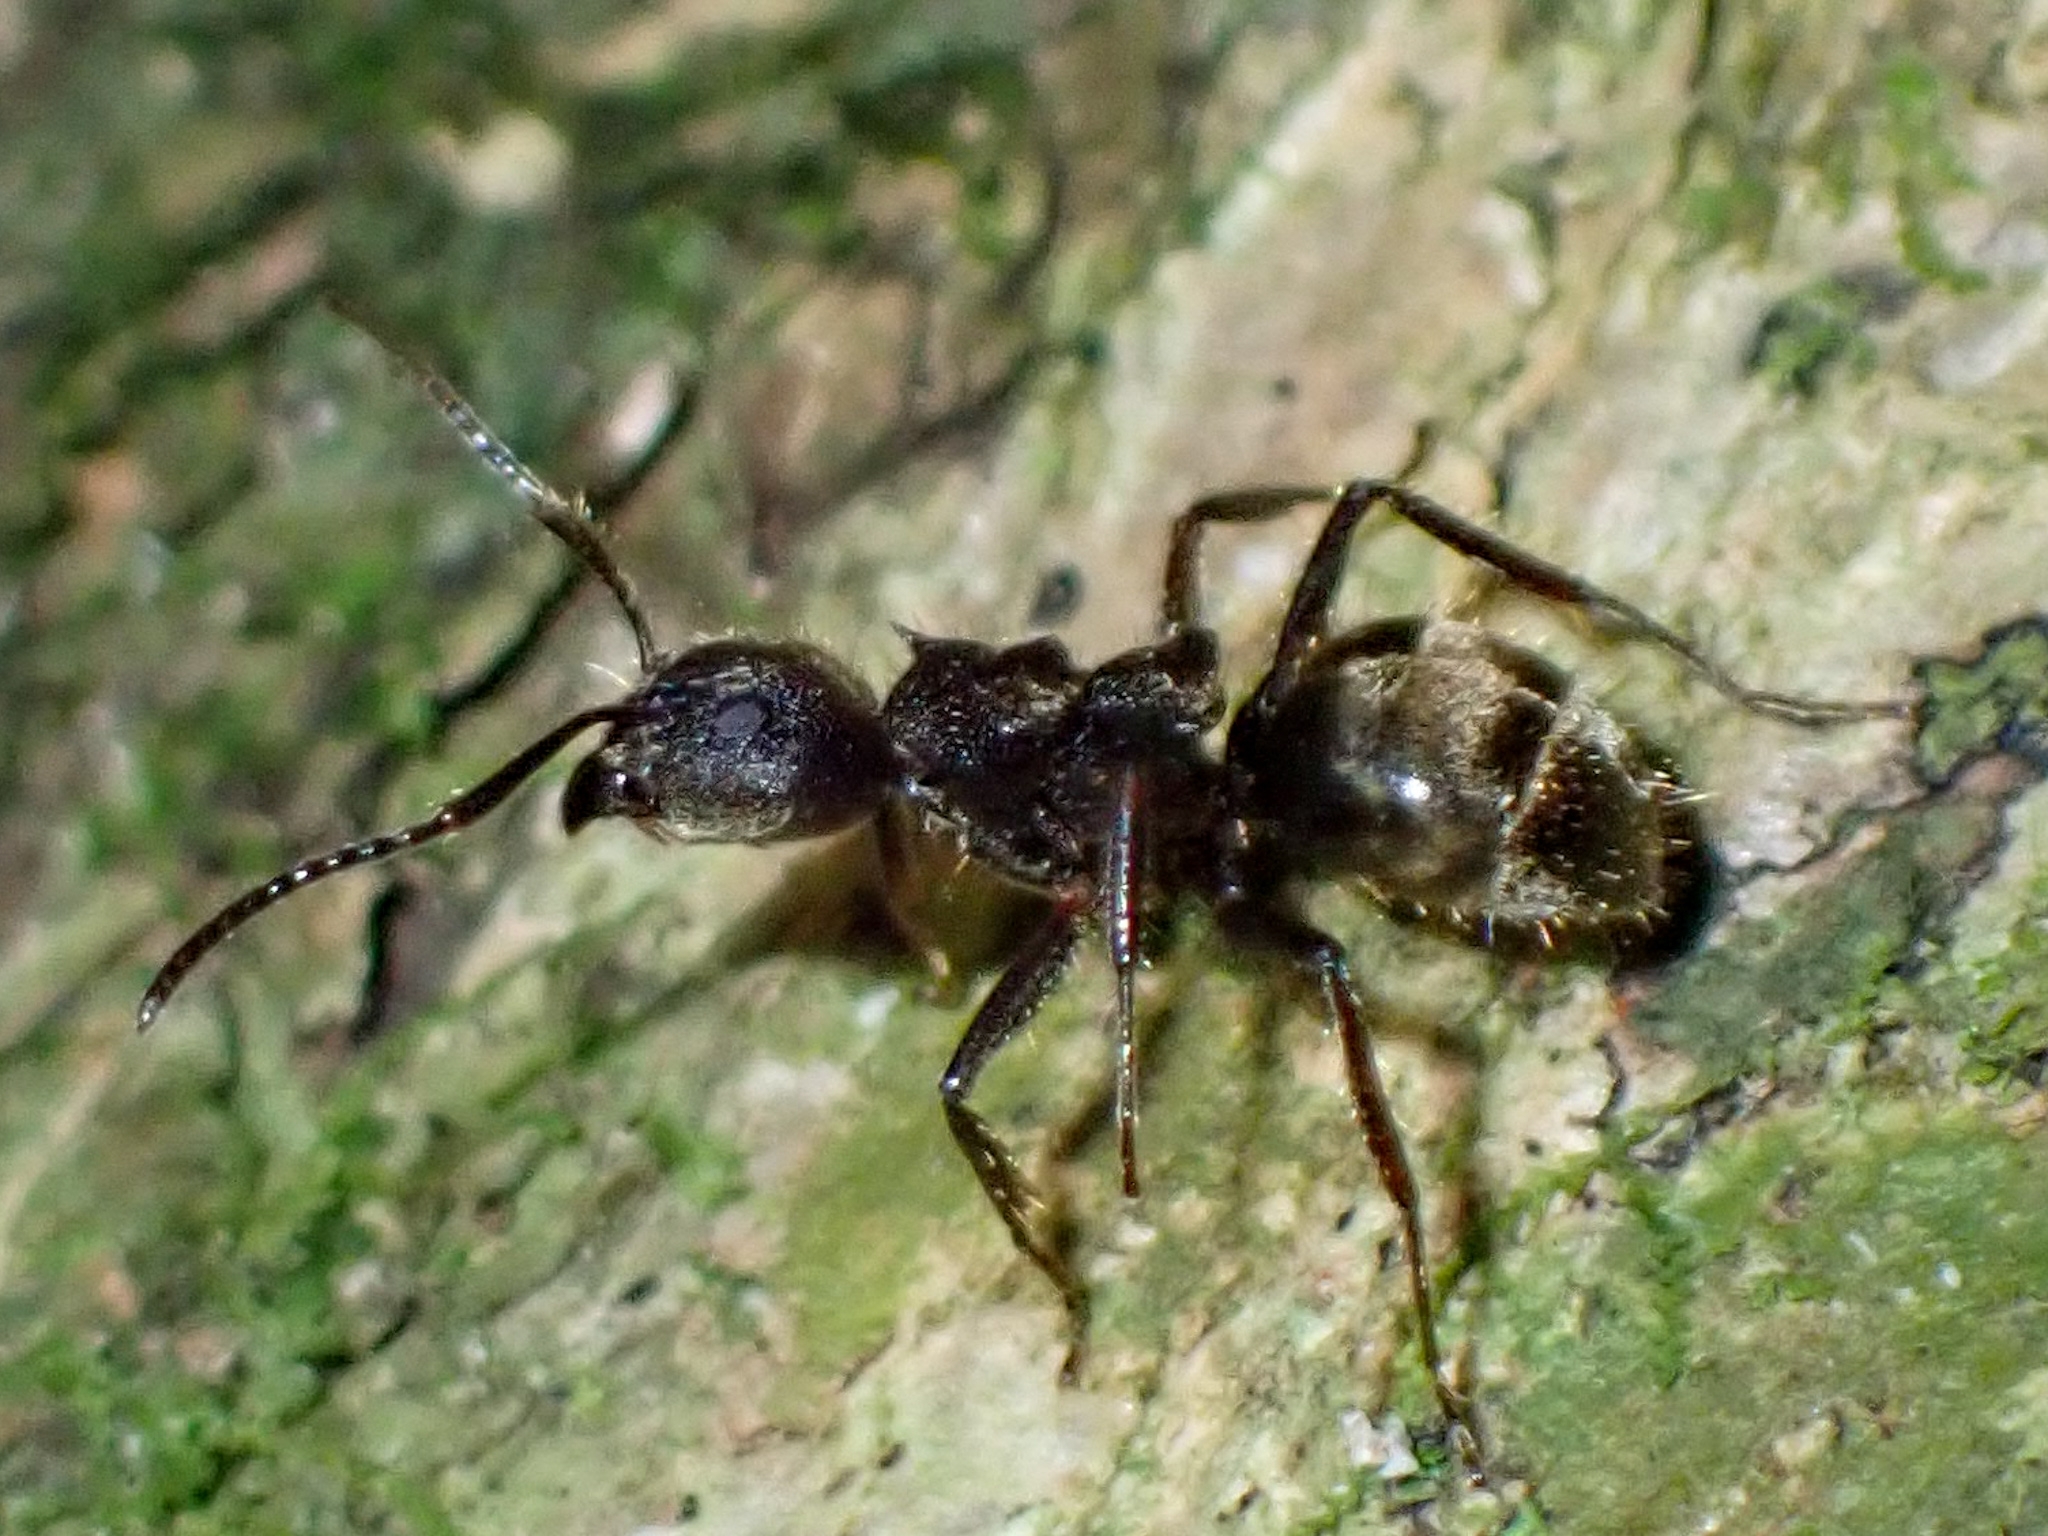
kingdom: Animalia
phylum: Arthropoda
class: Insecta
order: Hymenoptera
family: Formicidae
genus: Dolichoderus
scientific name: Dolichoderus bispinosus
